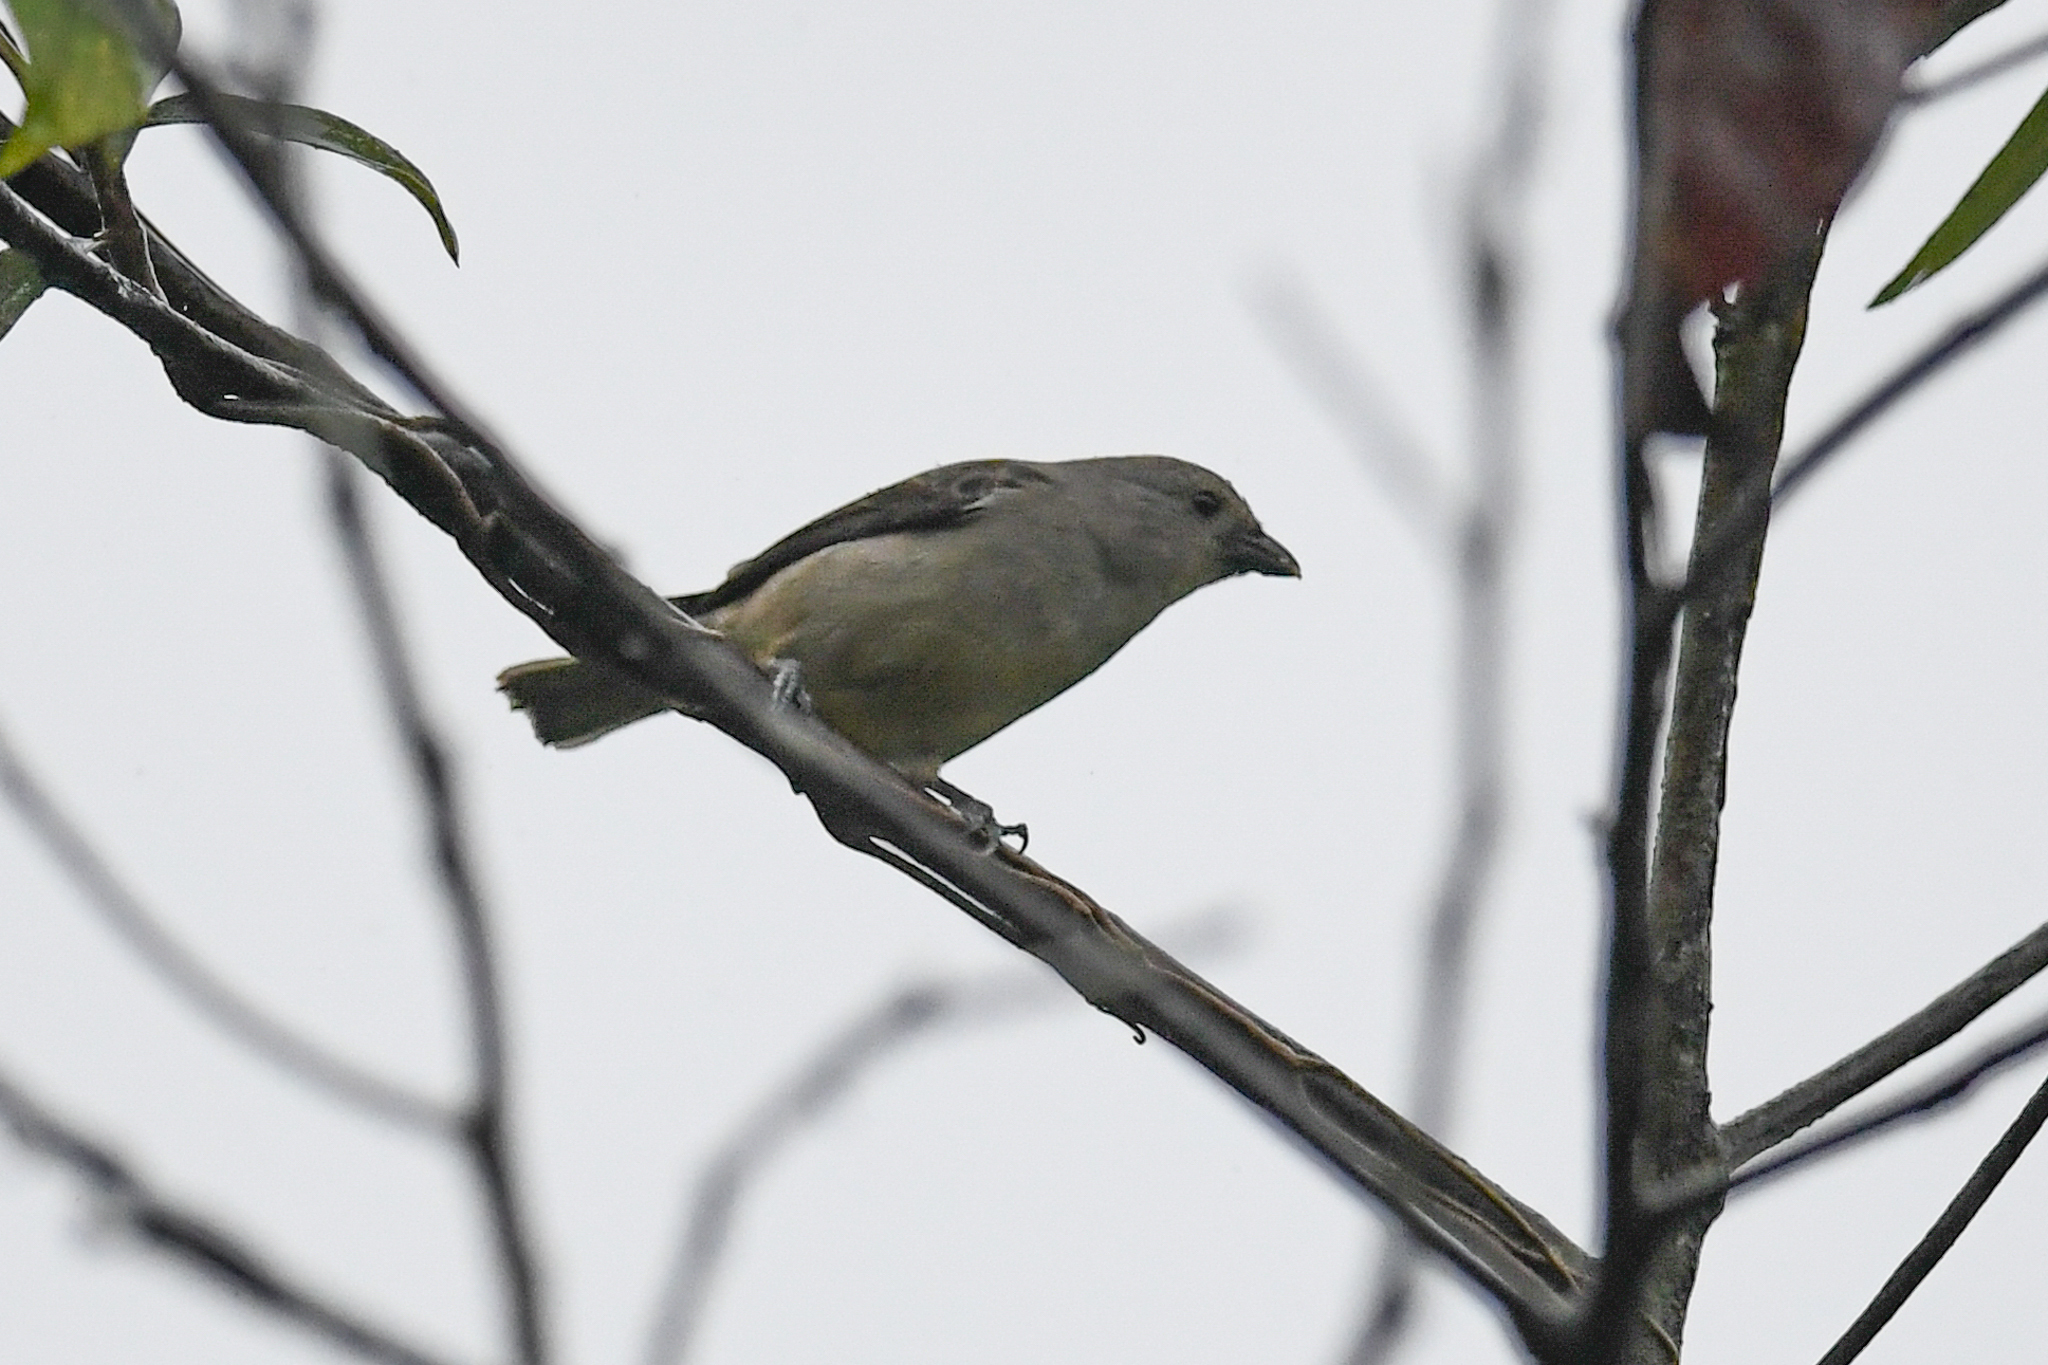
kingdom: Animalia
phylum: Chordata
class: Aves
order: Passeriformes
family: Thraupidae
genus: Tangara
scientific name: Tangara inornata
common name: Plain-colored tanager
